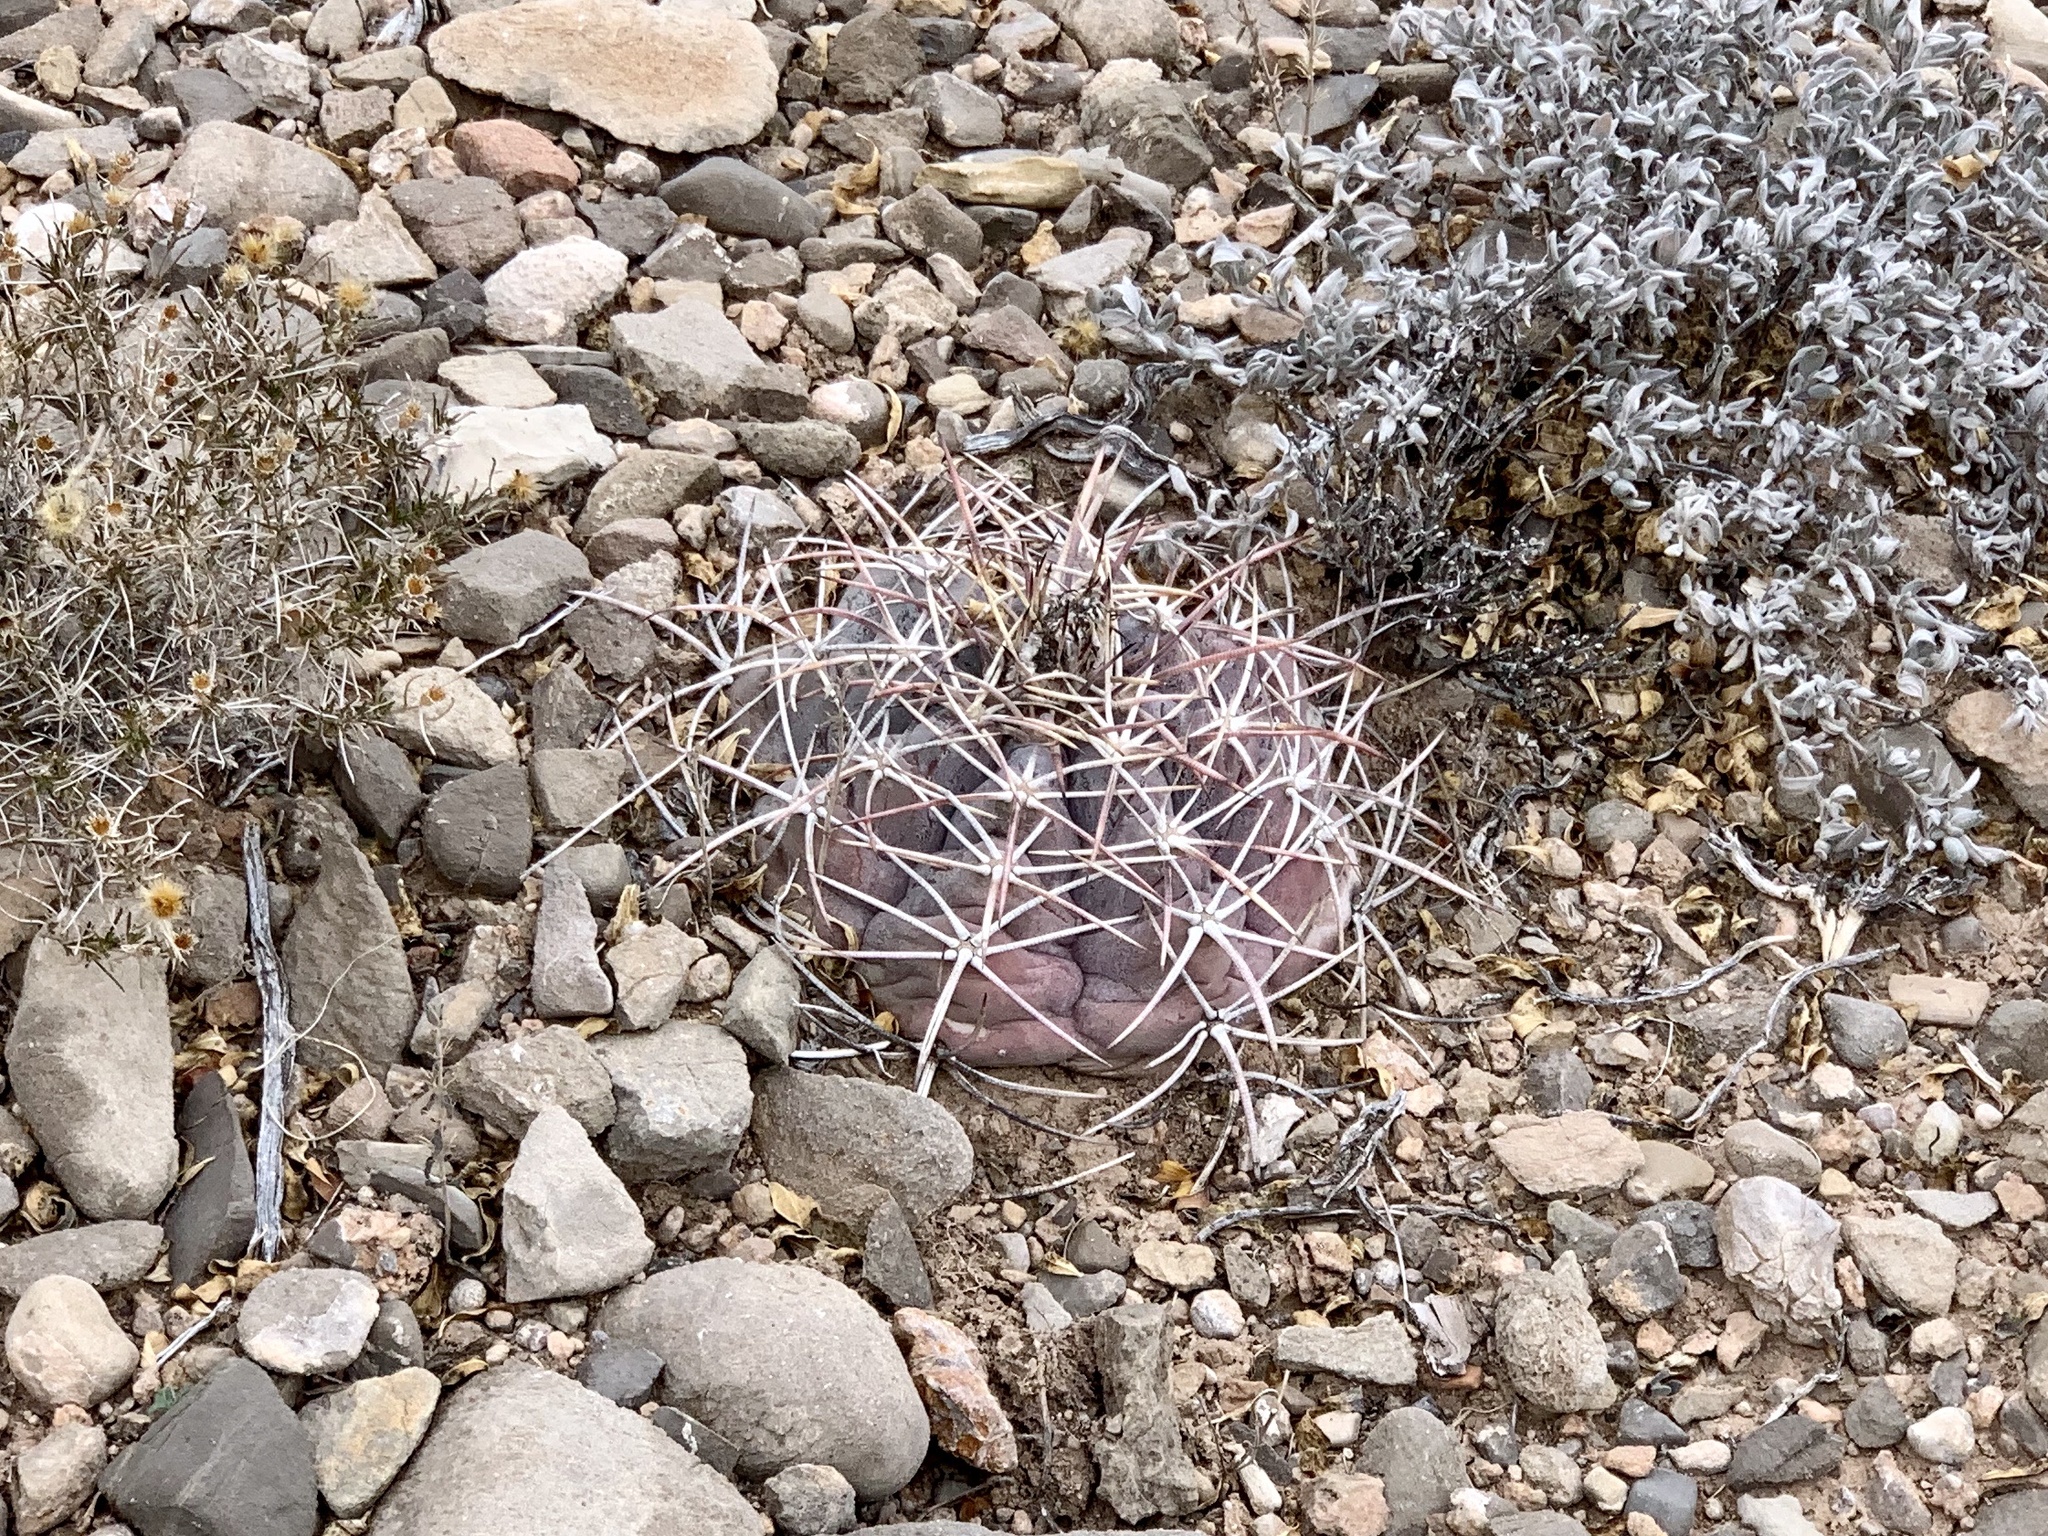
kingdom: Plantae
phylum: Tracheophyta
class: Magnoliopsida
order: Caryophyllales
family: Cactaceae
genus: Echinocactus
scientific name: Echinocactus horizonthalonius
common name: Devilshead
